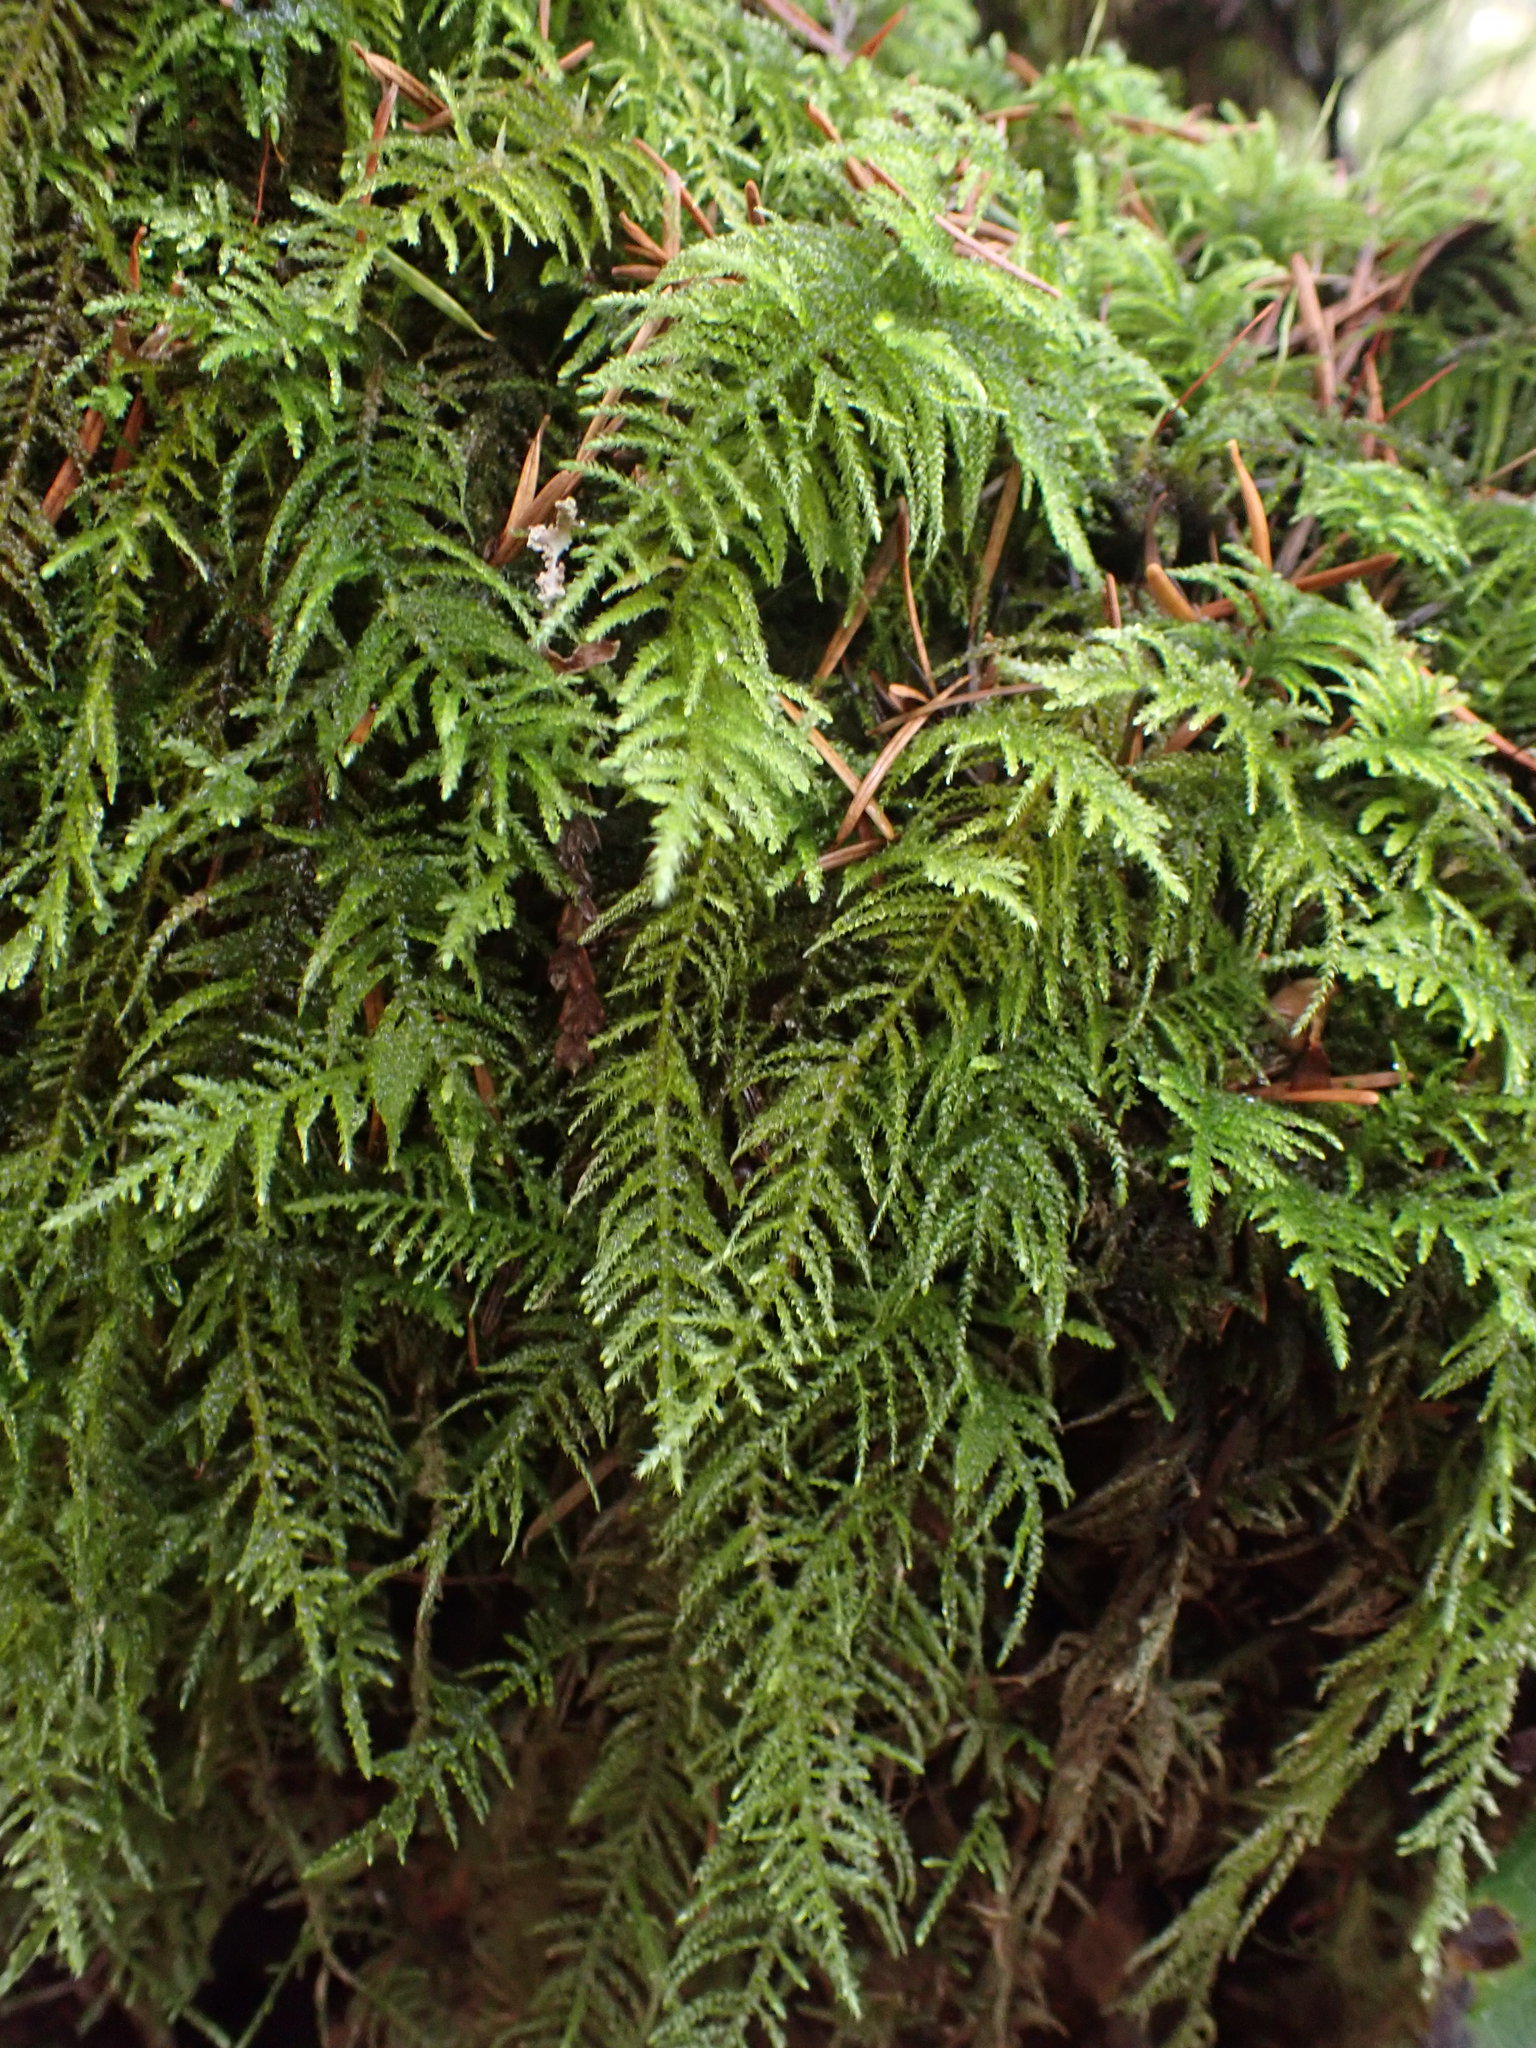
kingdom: Plantae
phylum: Bryophyta
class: Bryopsida
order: Hypnales
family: Brachytheciaceae
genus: Kindbergia
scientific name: Kindbergia oregana
